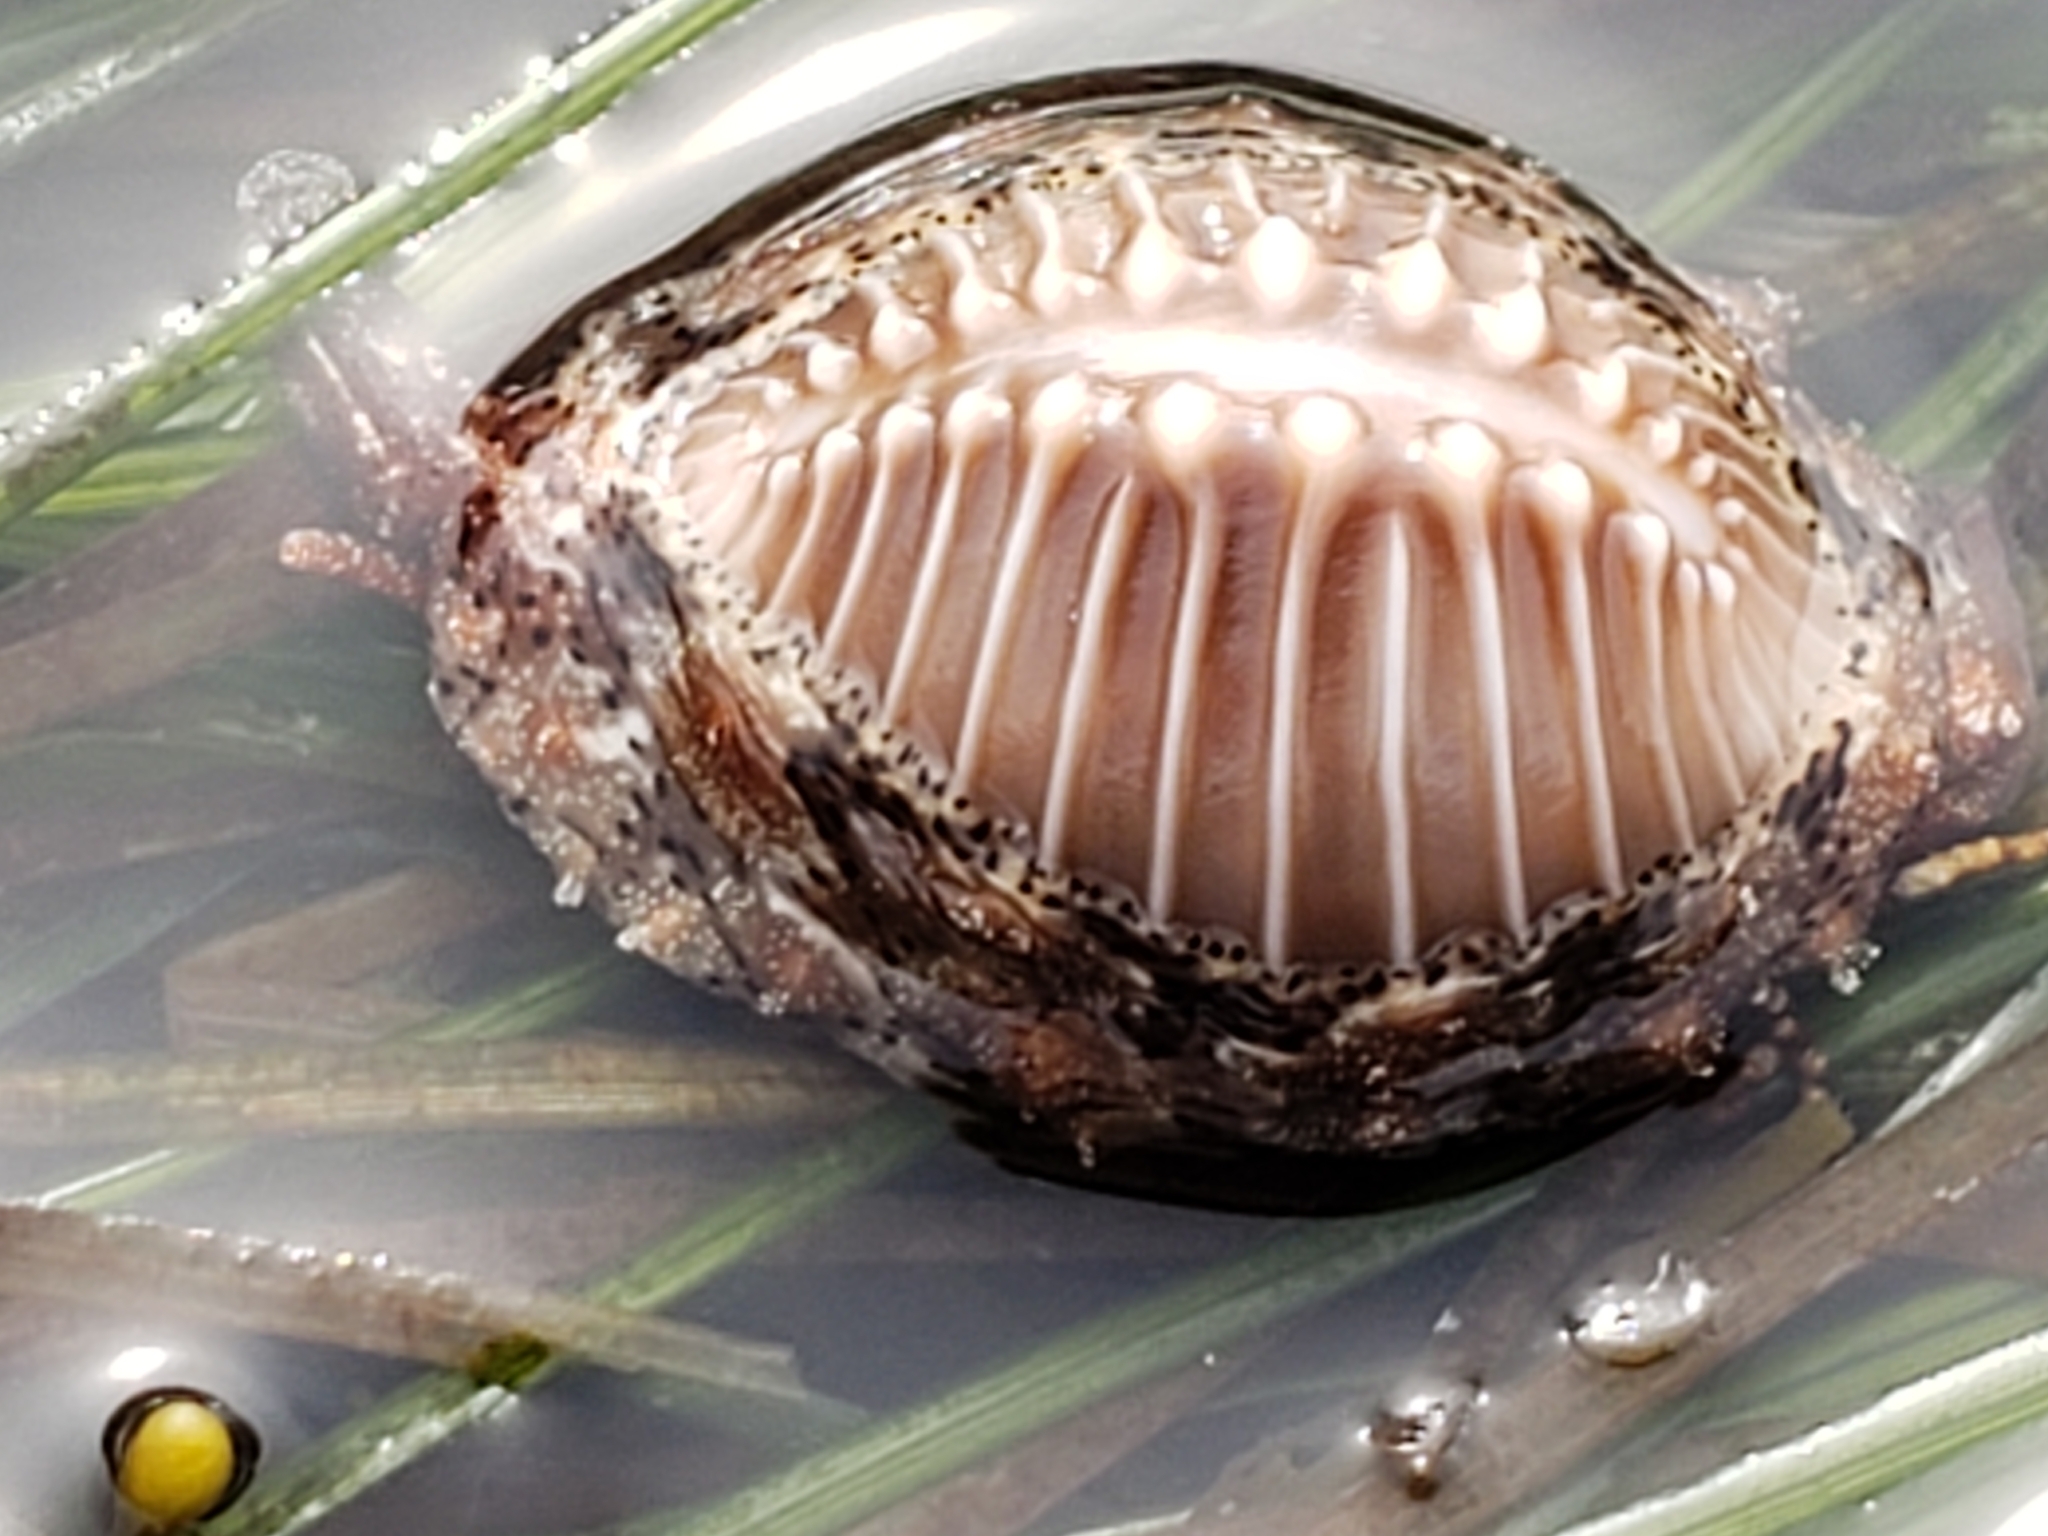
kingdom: Animalia
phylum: Mollusca
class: Gastropoda
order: Littorinimorpha
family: Triviidae
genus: Pusula
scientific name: Pusula solandri
